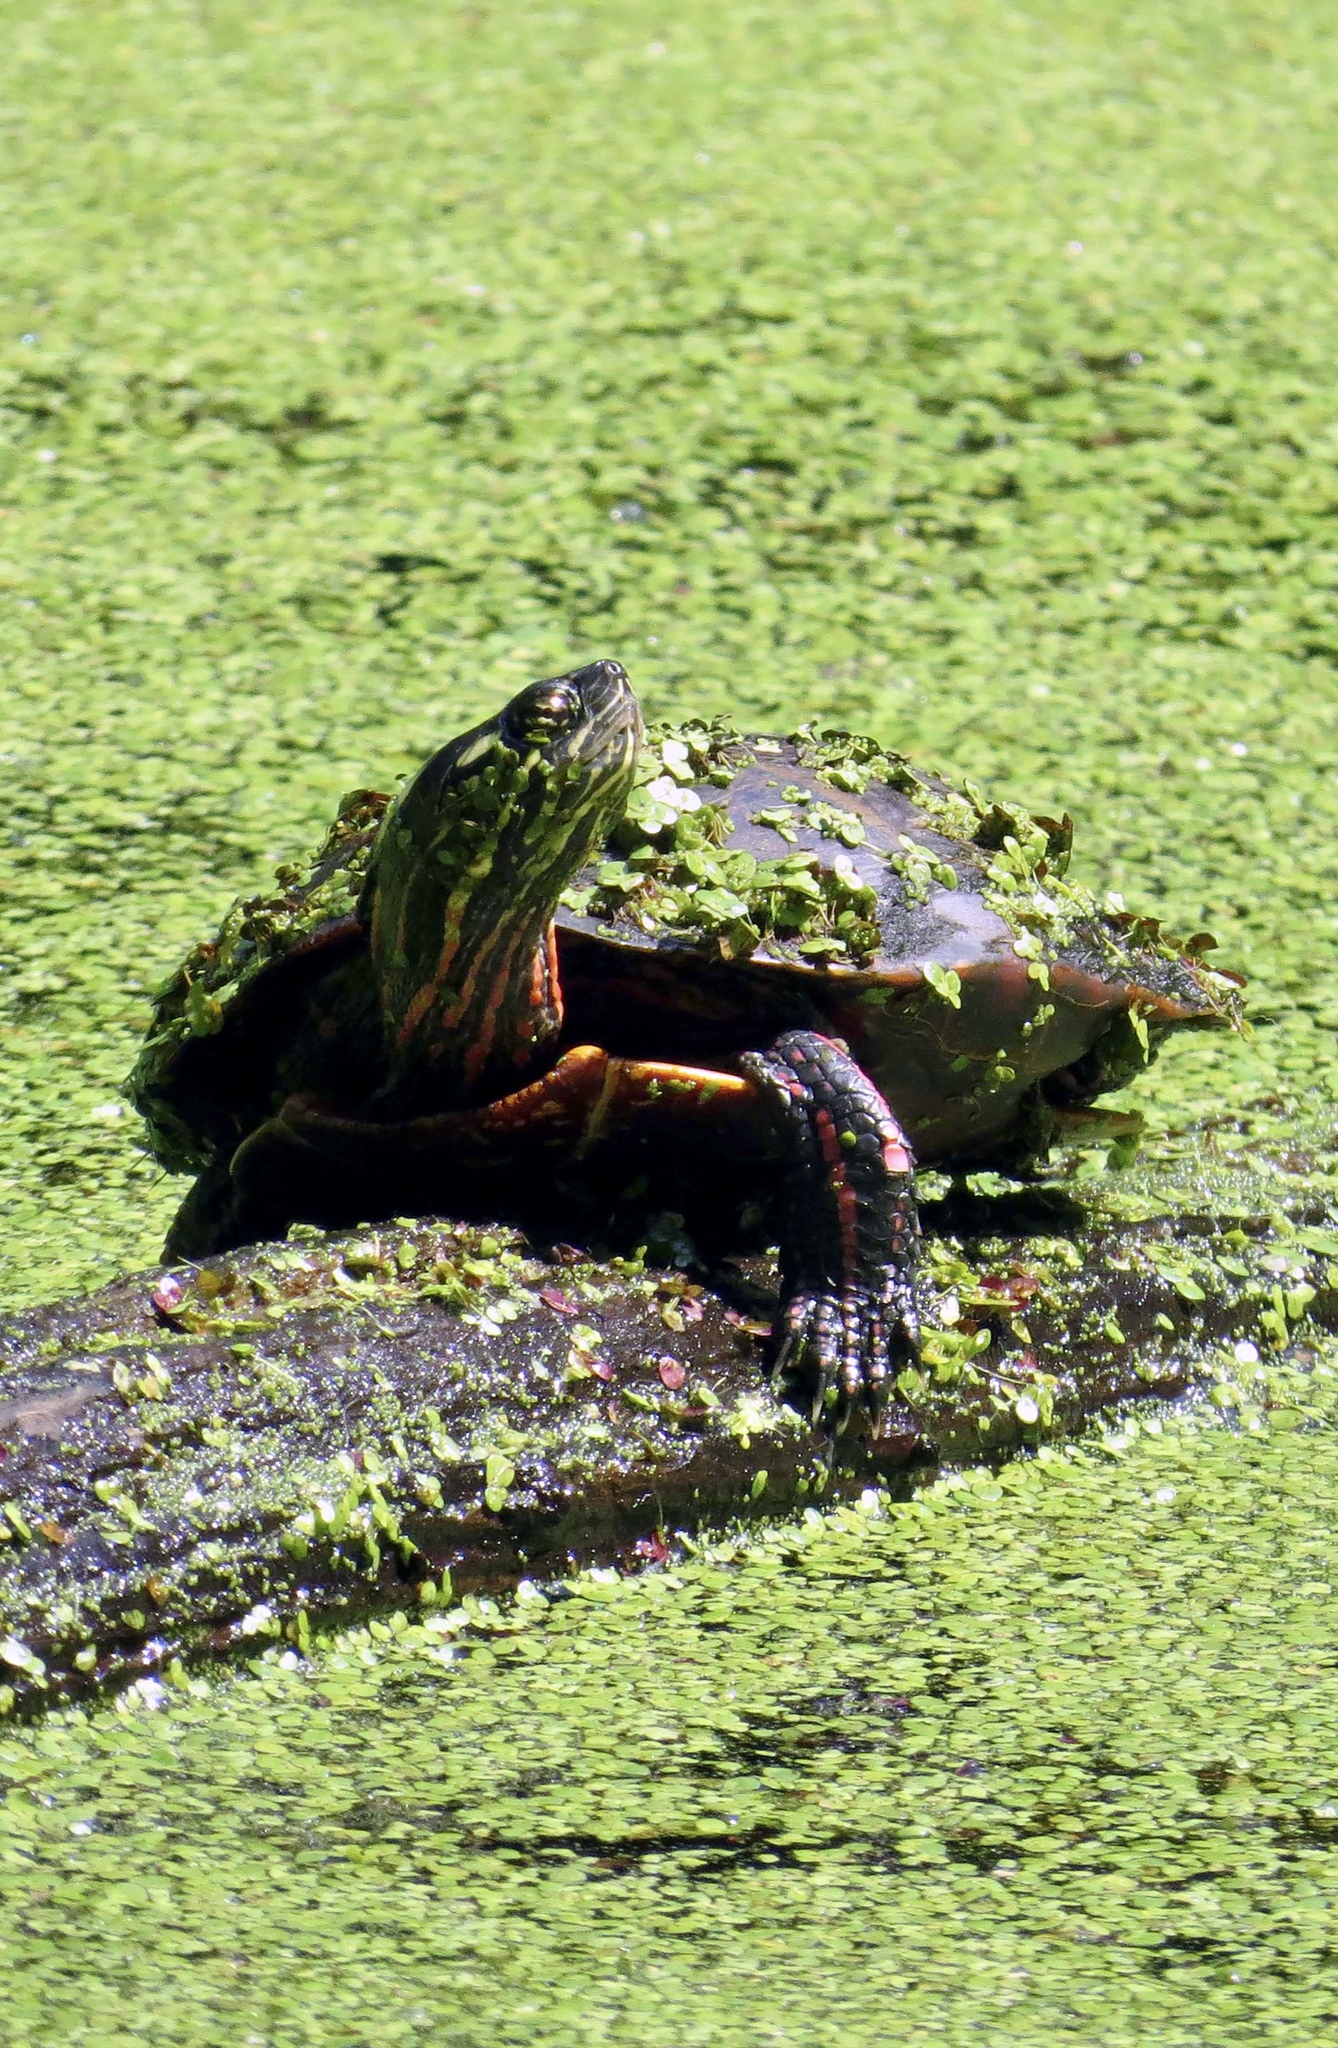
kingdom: Animalia
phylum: Chordata
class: Testudines
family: Emydidae
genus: Chrysemys
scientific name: Chrysemys picta
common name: Painted turtle
